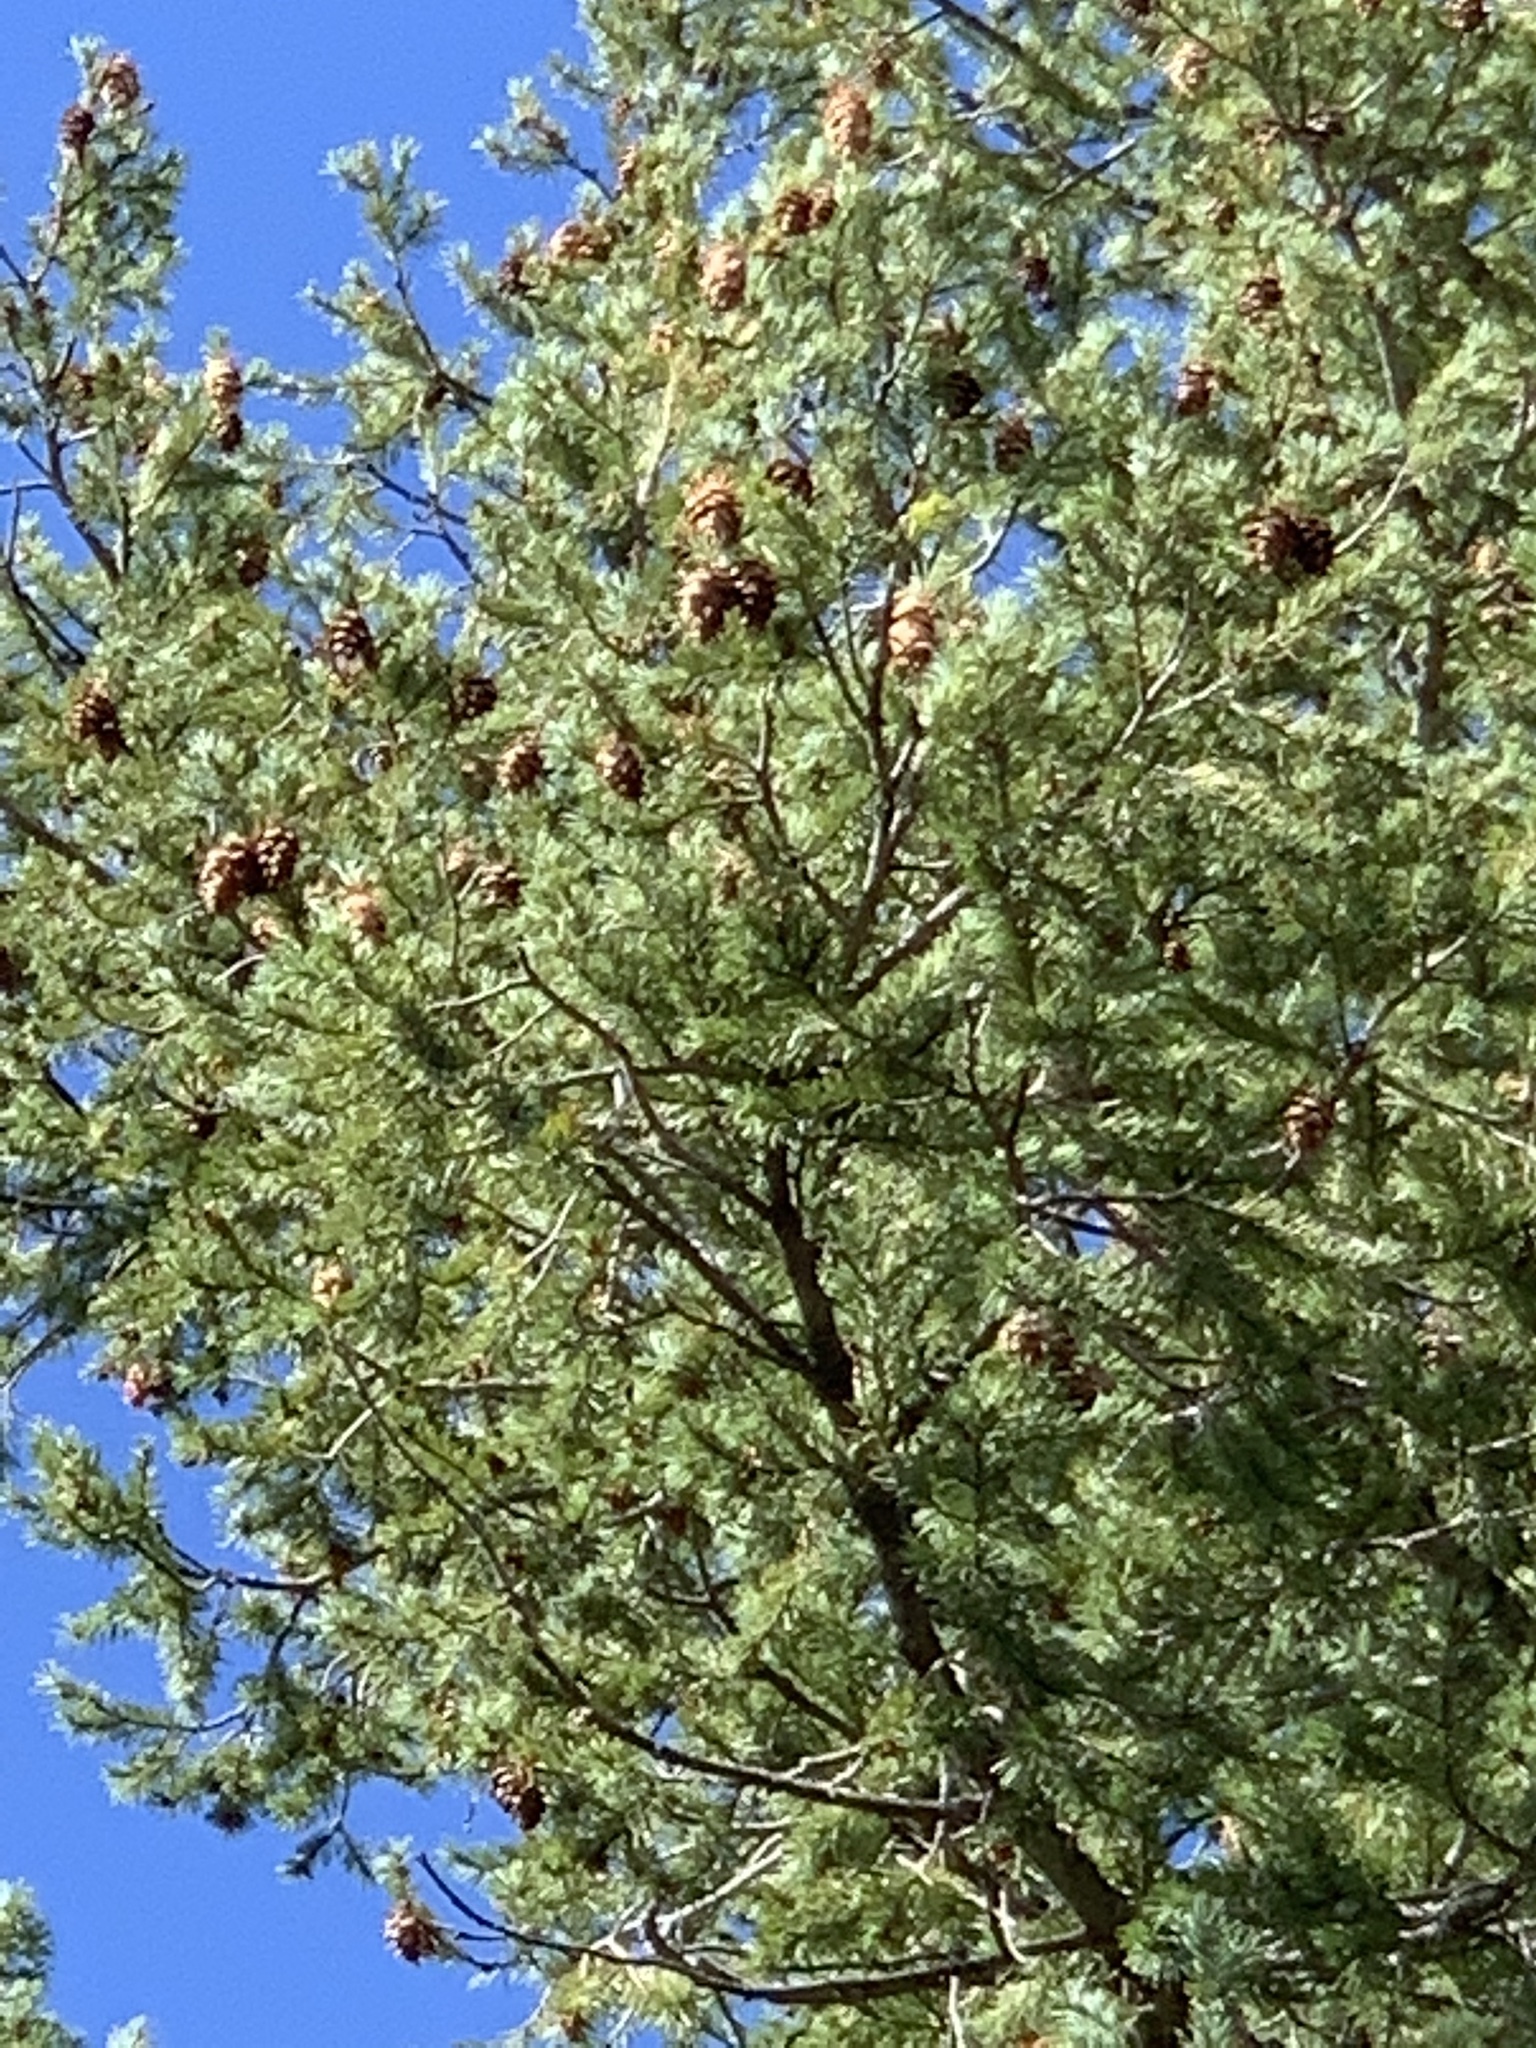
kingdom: Plantae
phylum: Tracheophyta
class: Pinopsida
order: Pinales
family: Pinaceae
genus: Pseudotsuga
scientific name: Pseudotsuga menziesii
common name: Douglas fir
